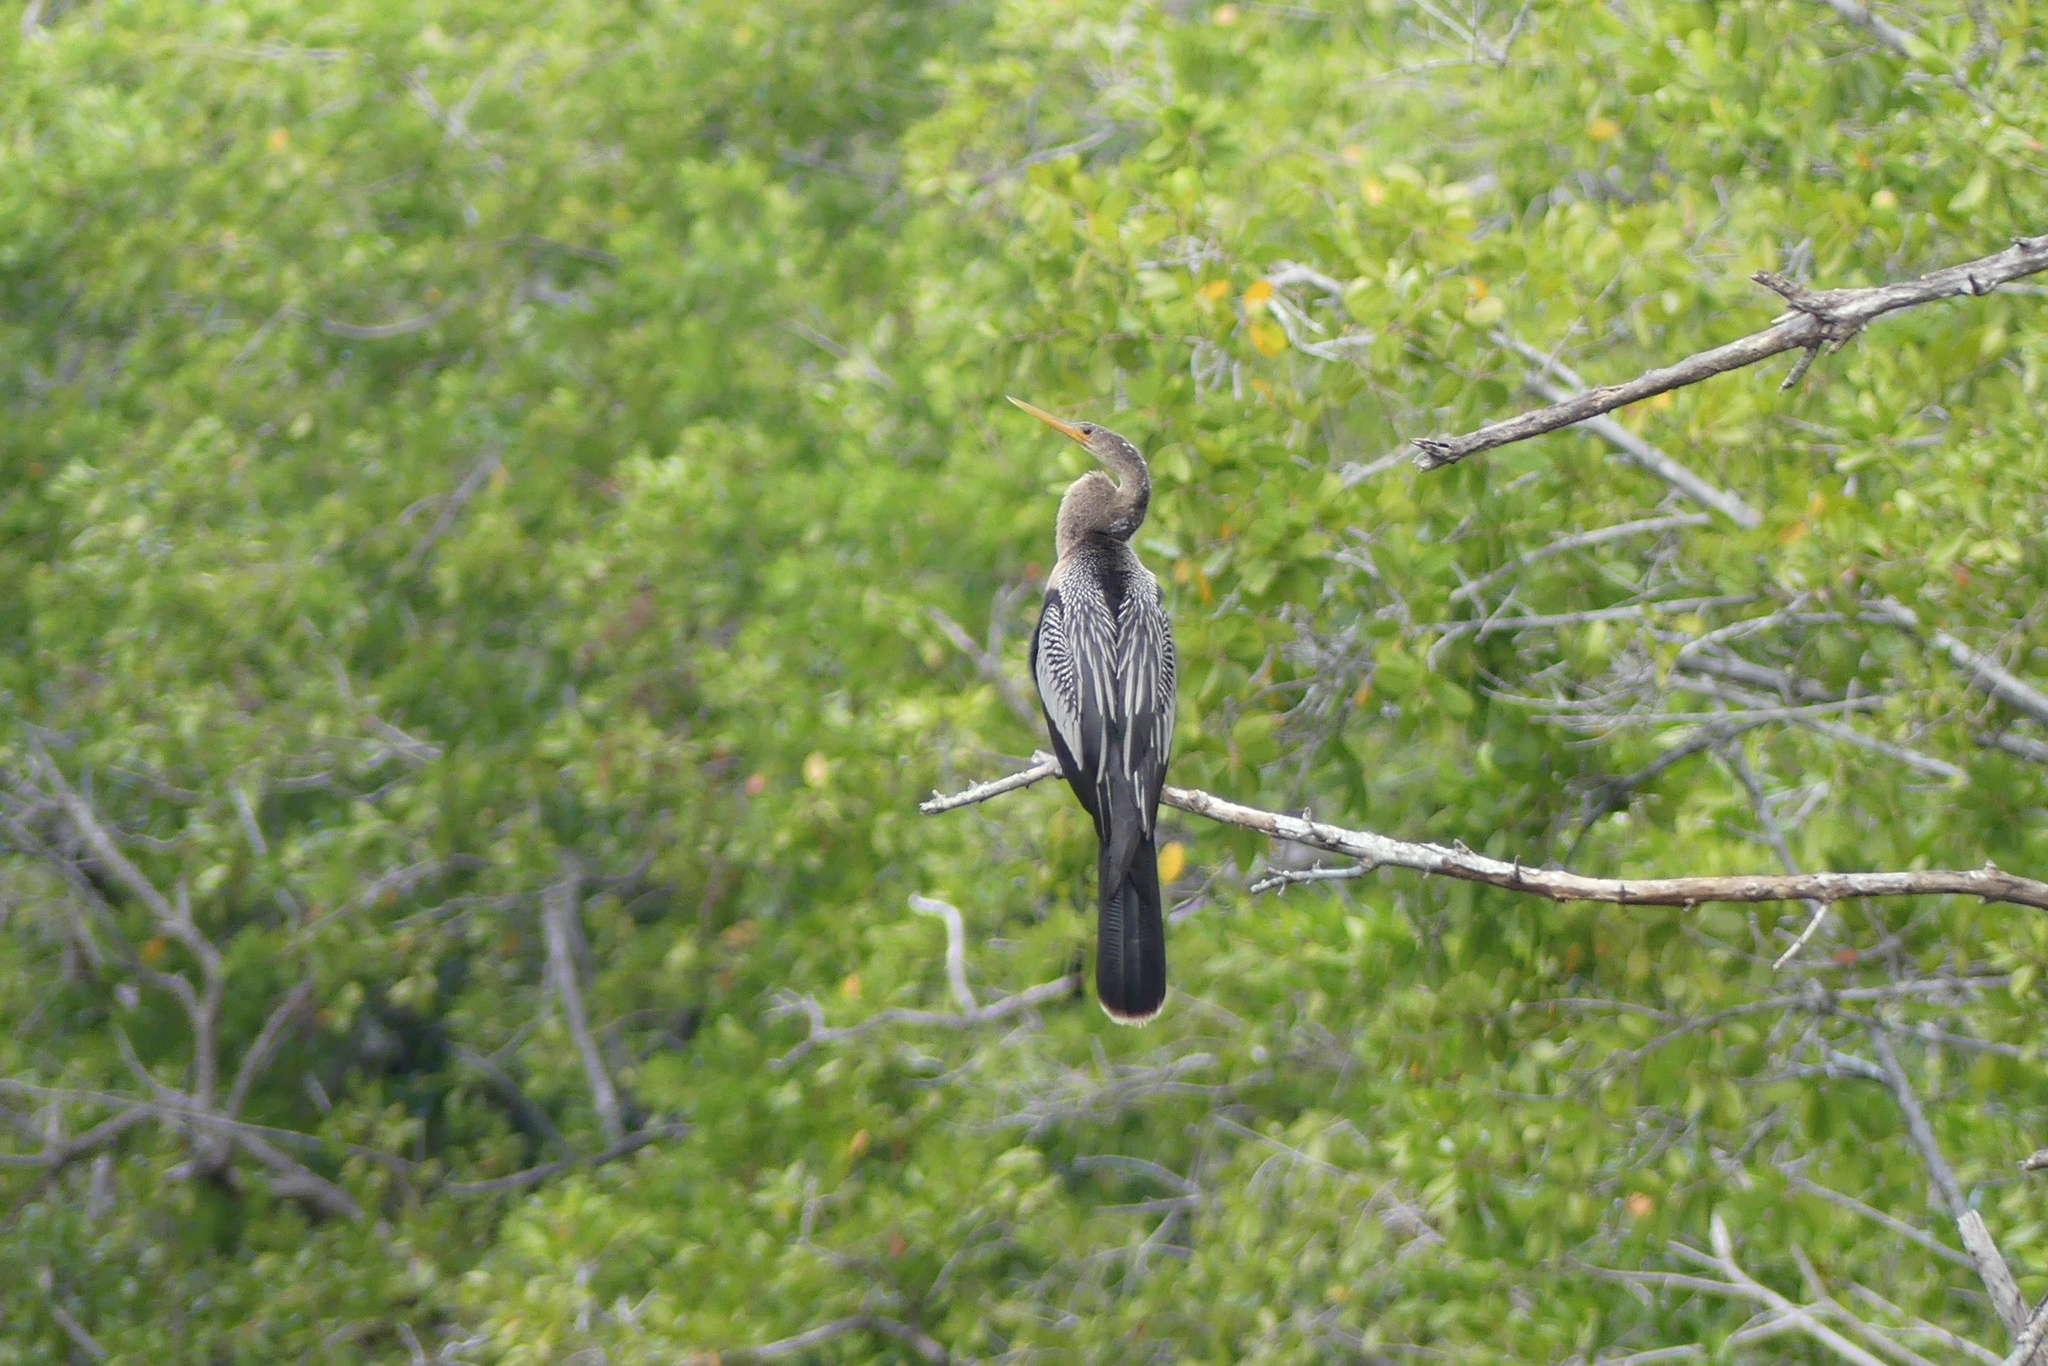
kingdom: Animalia
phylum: Chordata
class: Aves
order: Suliformes
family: Anhingidae
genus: Anhinga
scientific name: Anhinga anhinga
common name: Anhinga
